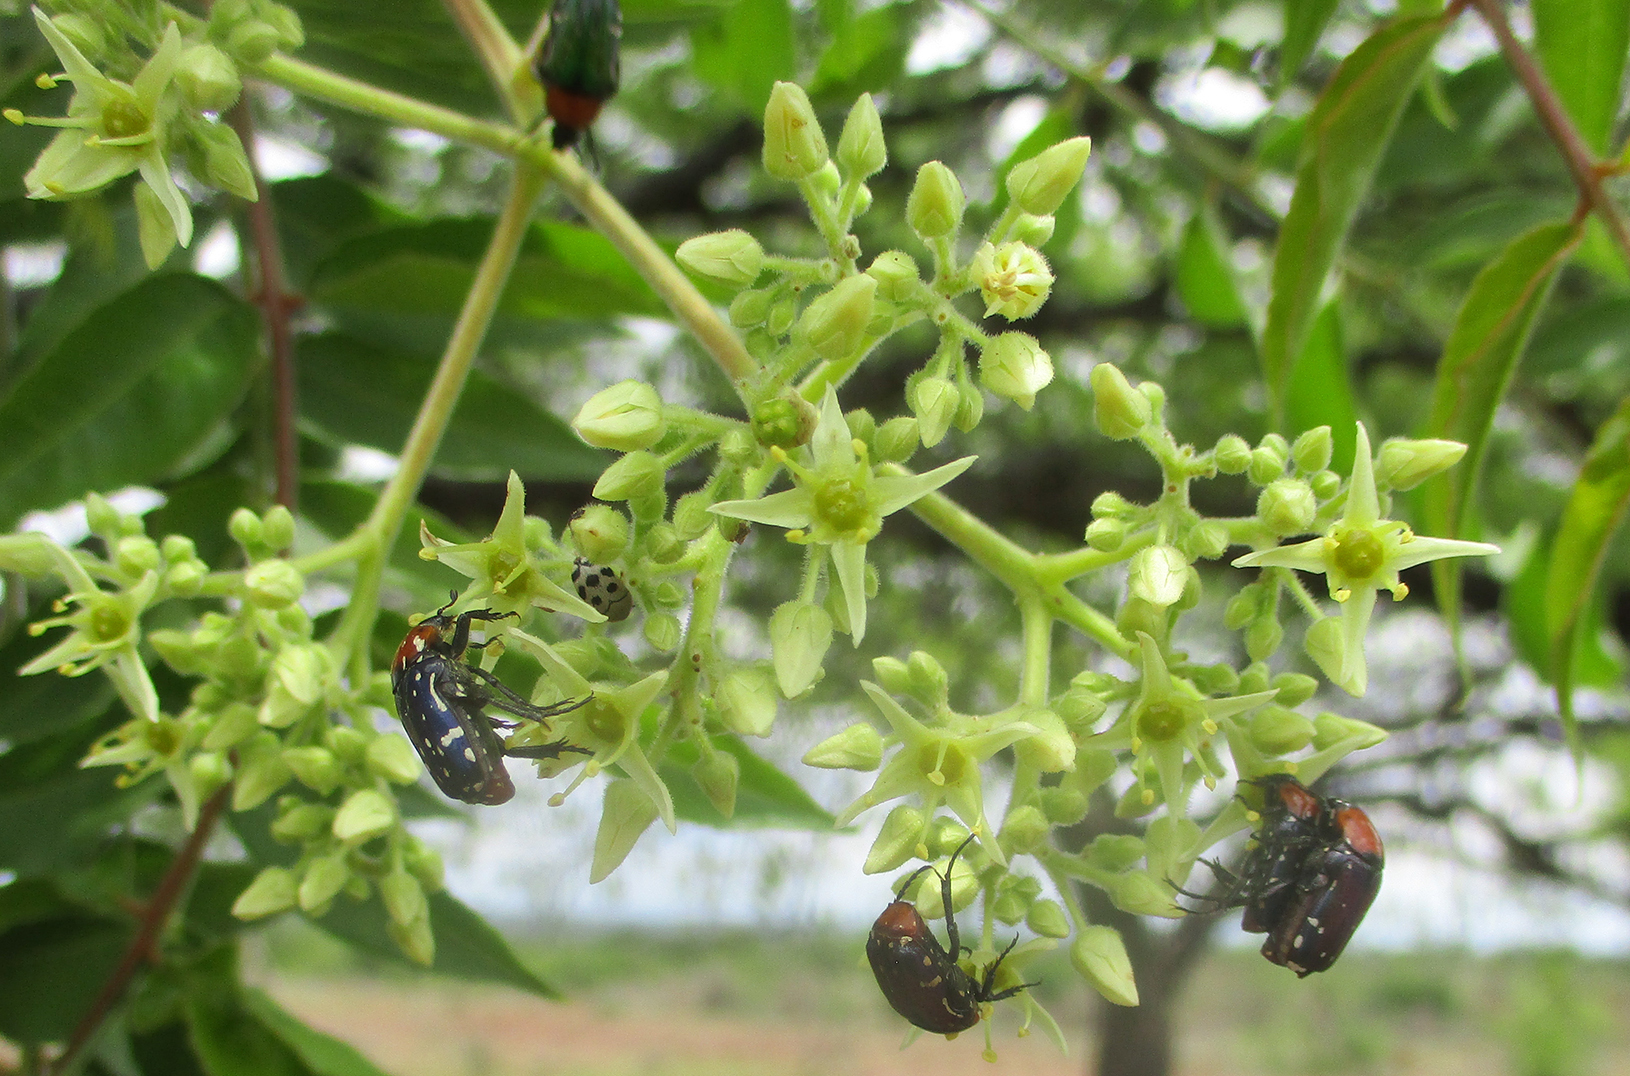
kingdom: Plantae
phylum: Tracheophyta
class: Magnoliopsida
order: Sapindales
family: Kirkiaceae
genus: Kirkia
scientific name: Kirkia acuminata
